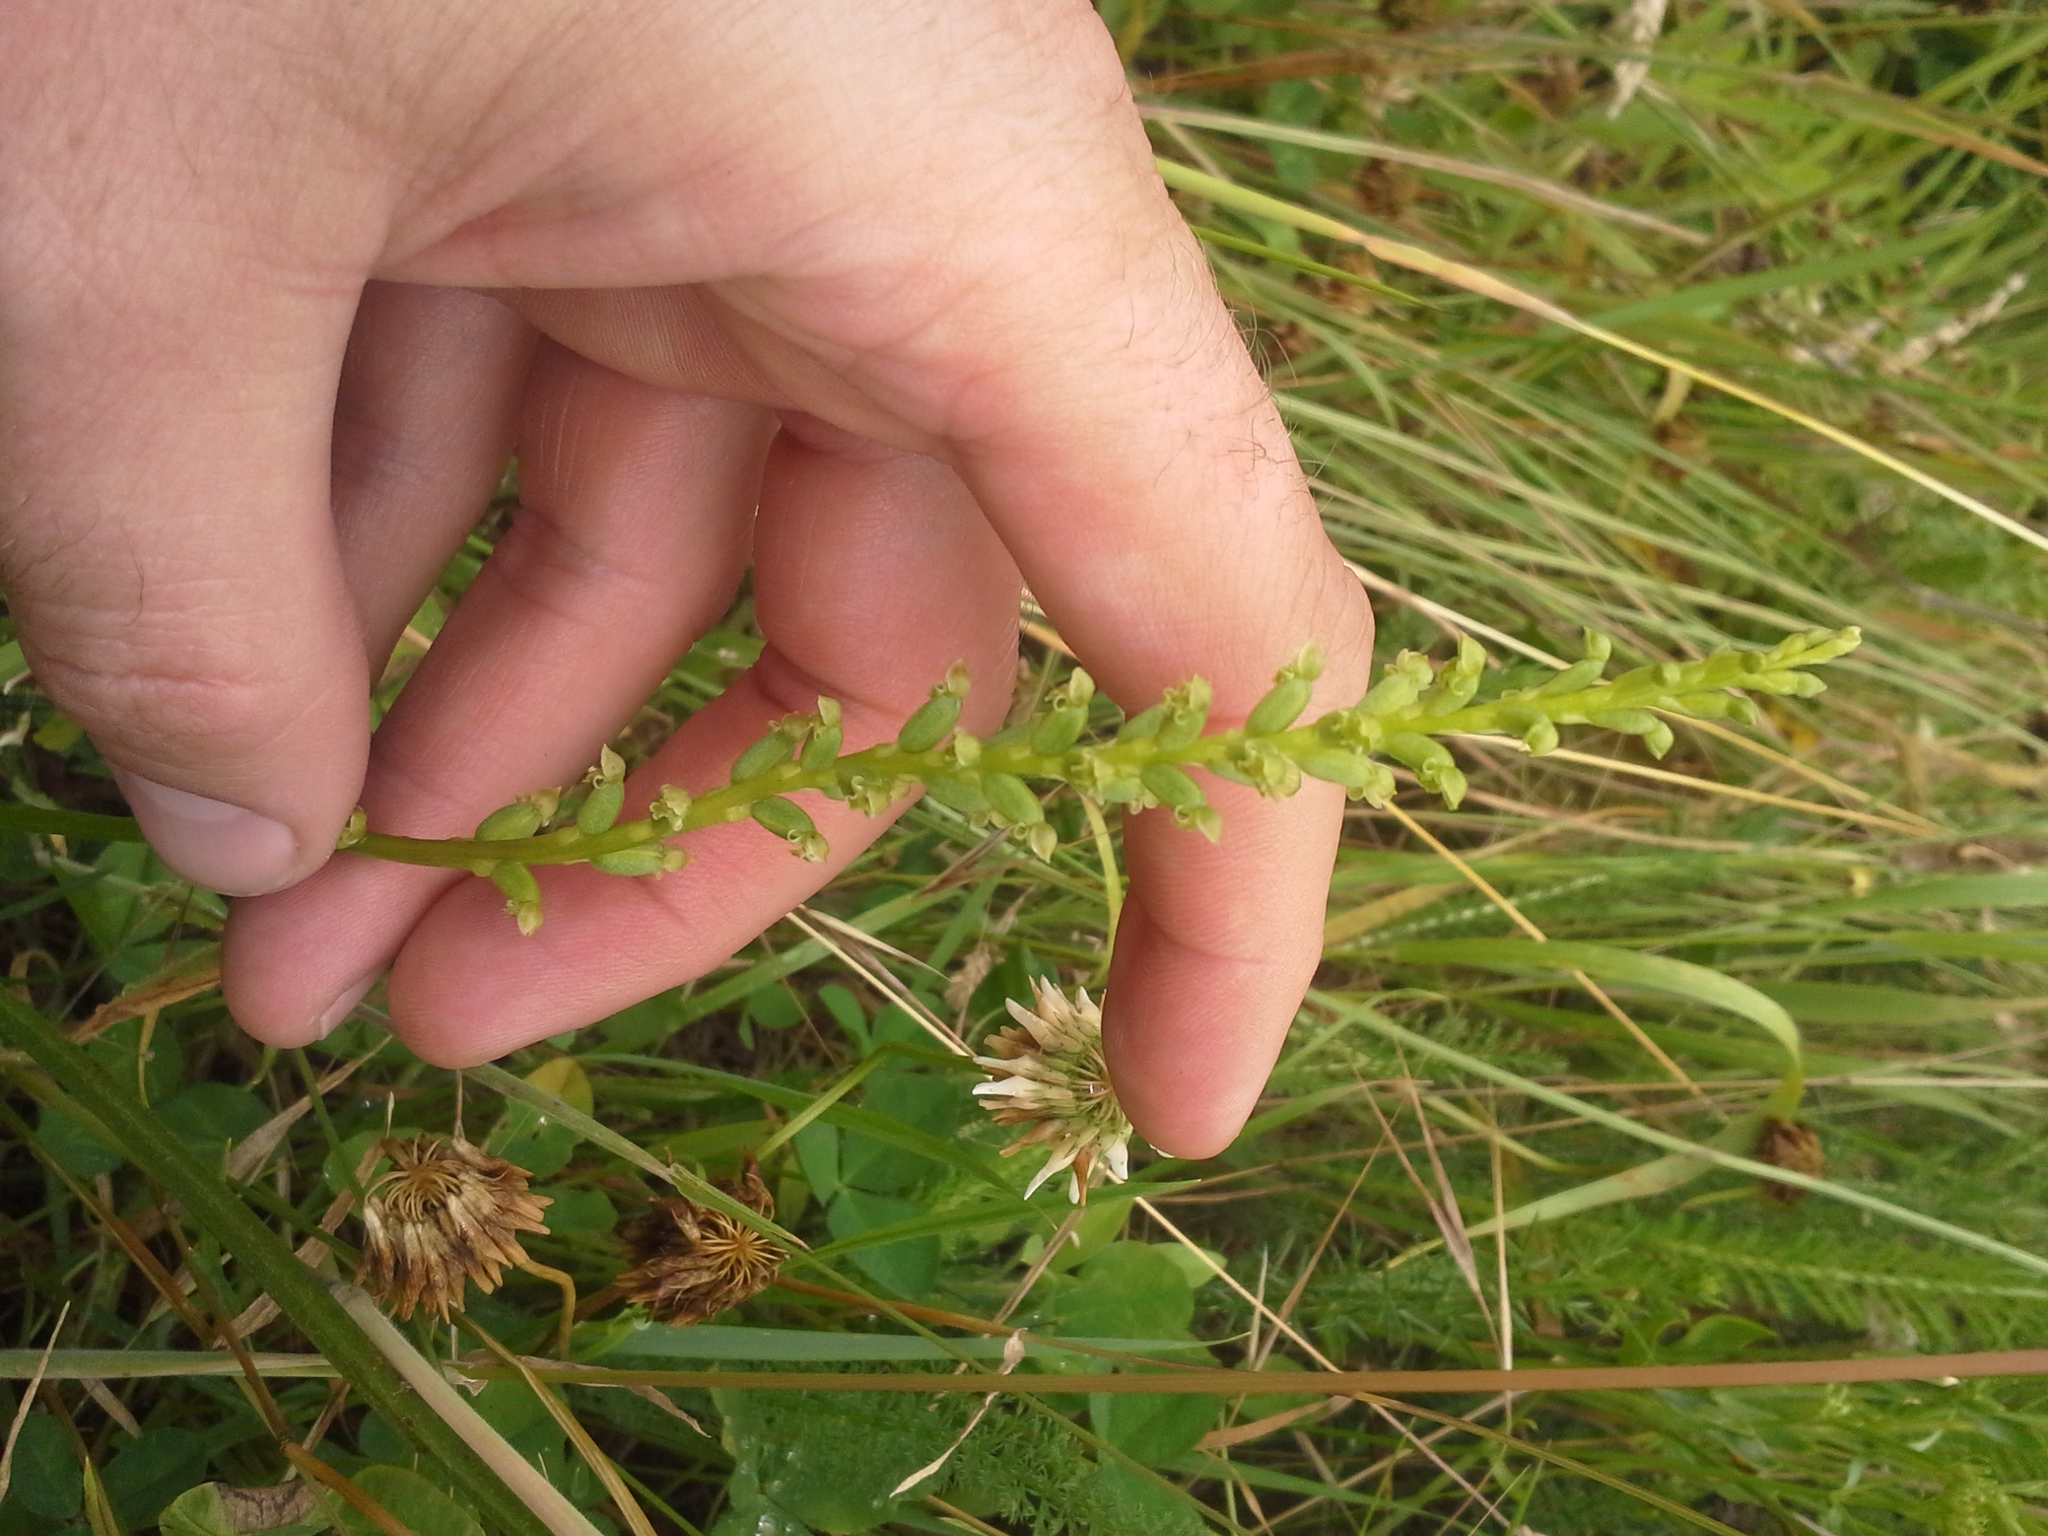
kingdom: Plantae
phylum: Tracheophyta
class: Liliopsida
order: Asparagales
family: Orchidaceae
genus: Microtis
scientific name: Microtis unifolia
